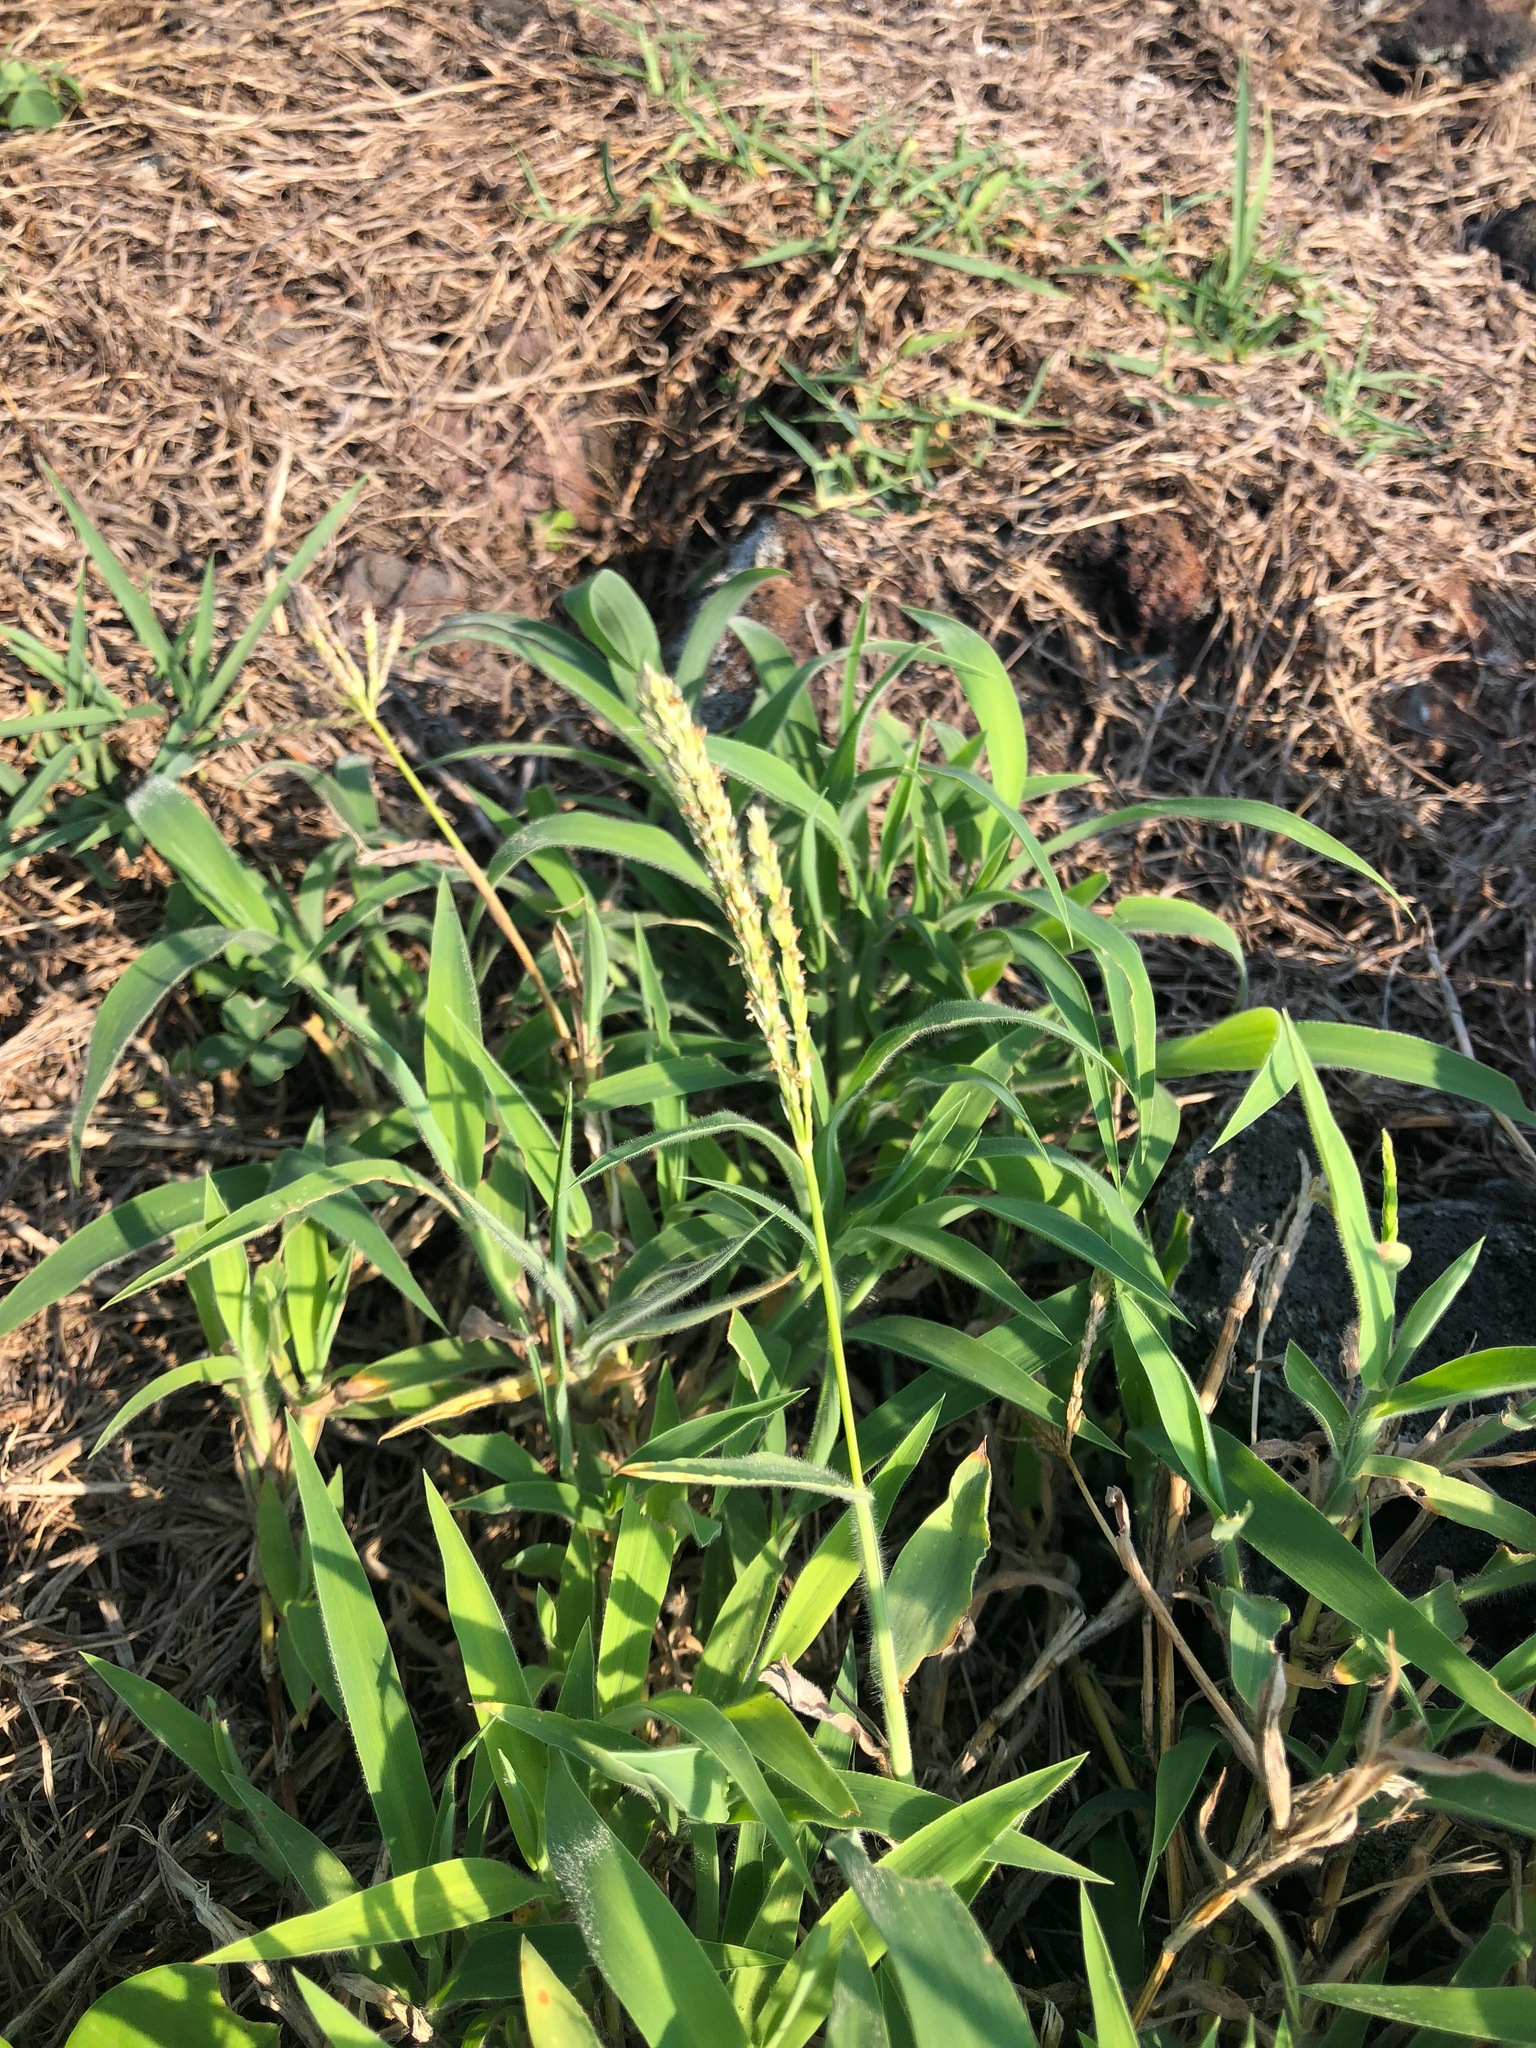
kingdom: Plantae
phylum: Tracheophyta
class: Liliopsida
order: Poales
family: Poaceae
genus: Digitaria
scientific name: Digitaria sericea
